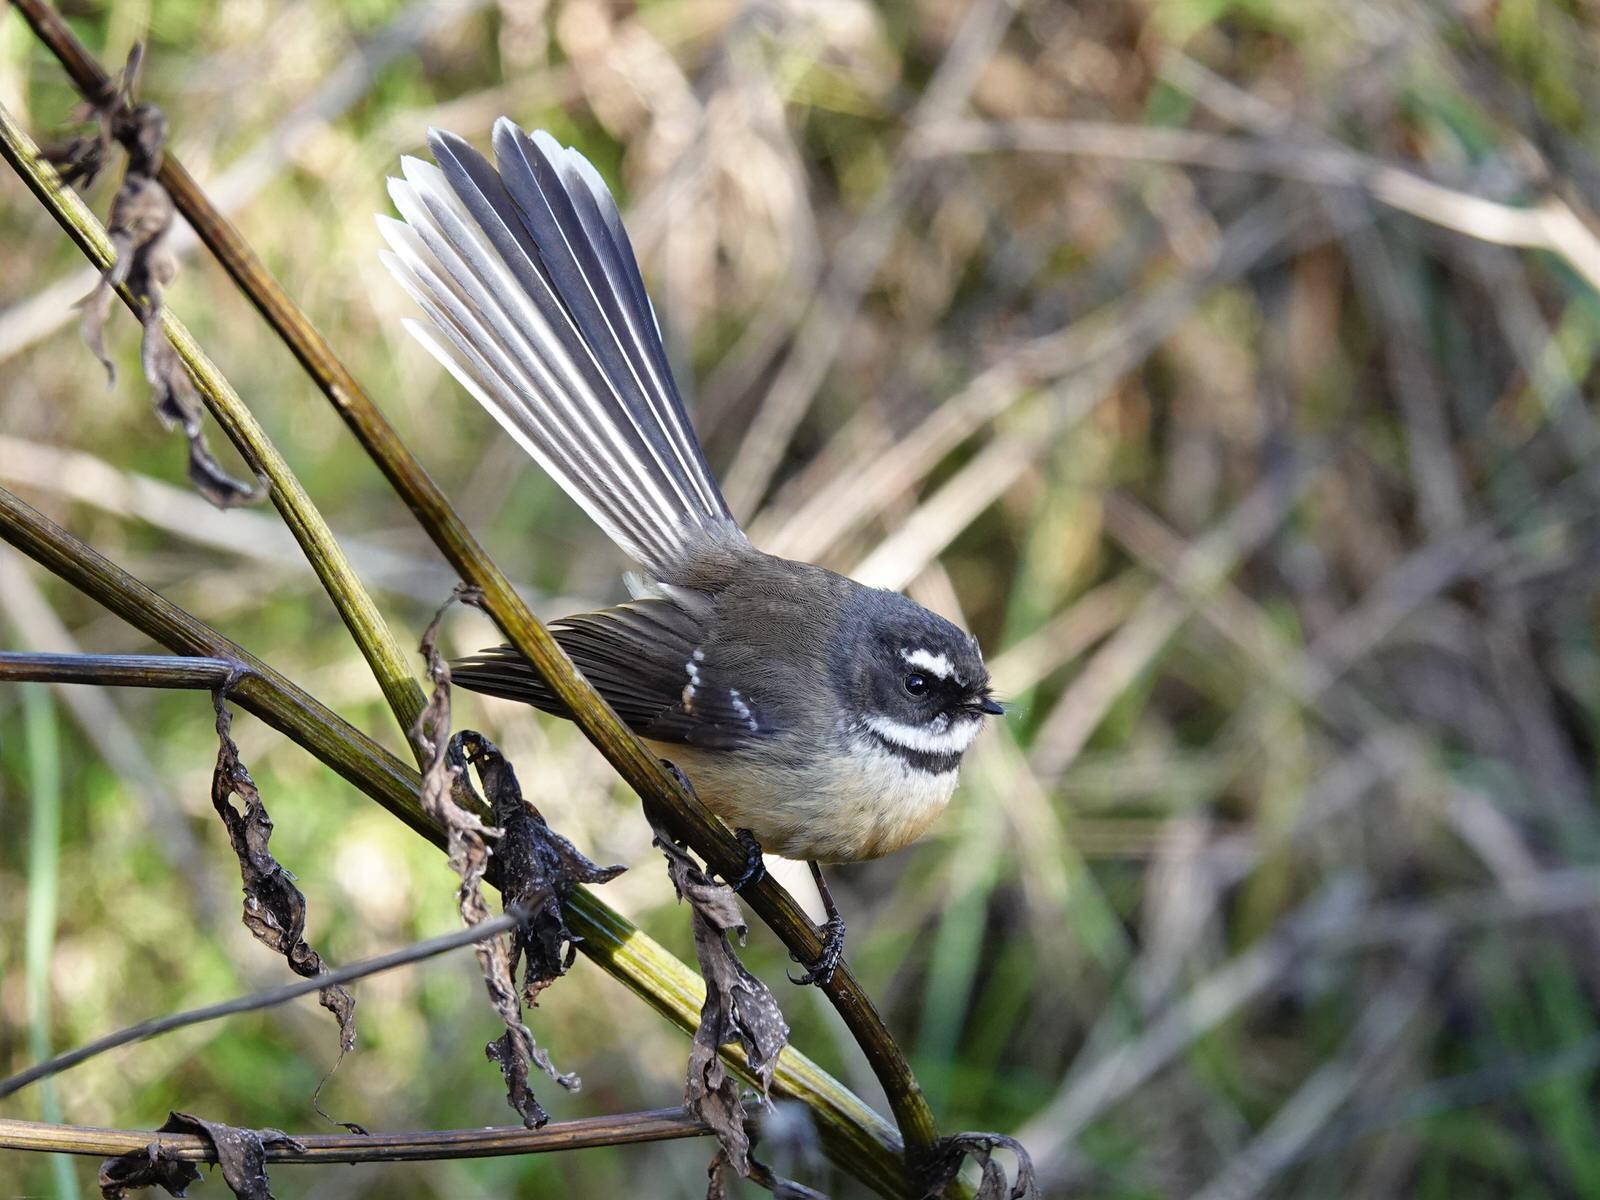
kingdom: Animalia
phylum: Chordata
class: Aves
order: Passeriformes
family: Rhipiduridae
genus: Rhipidura
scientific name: Rhipidura fuliginosa
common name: New zealand fantail
